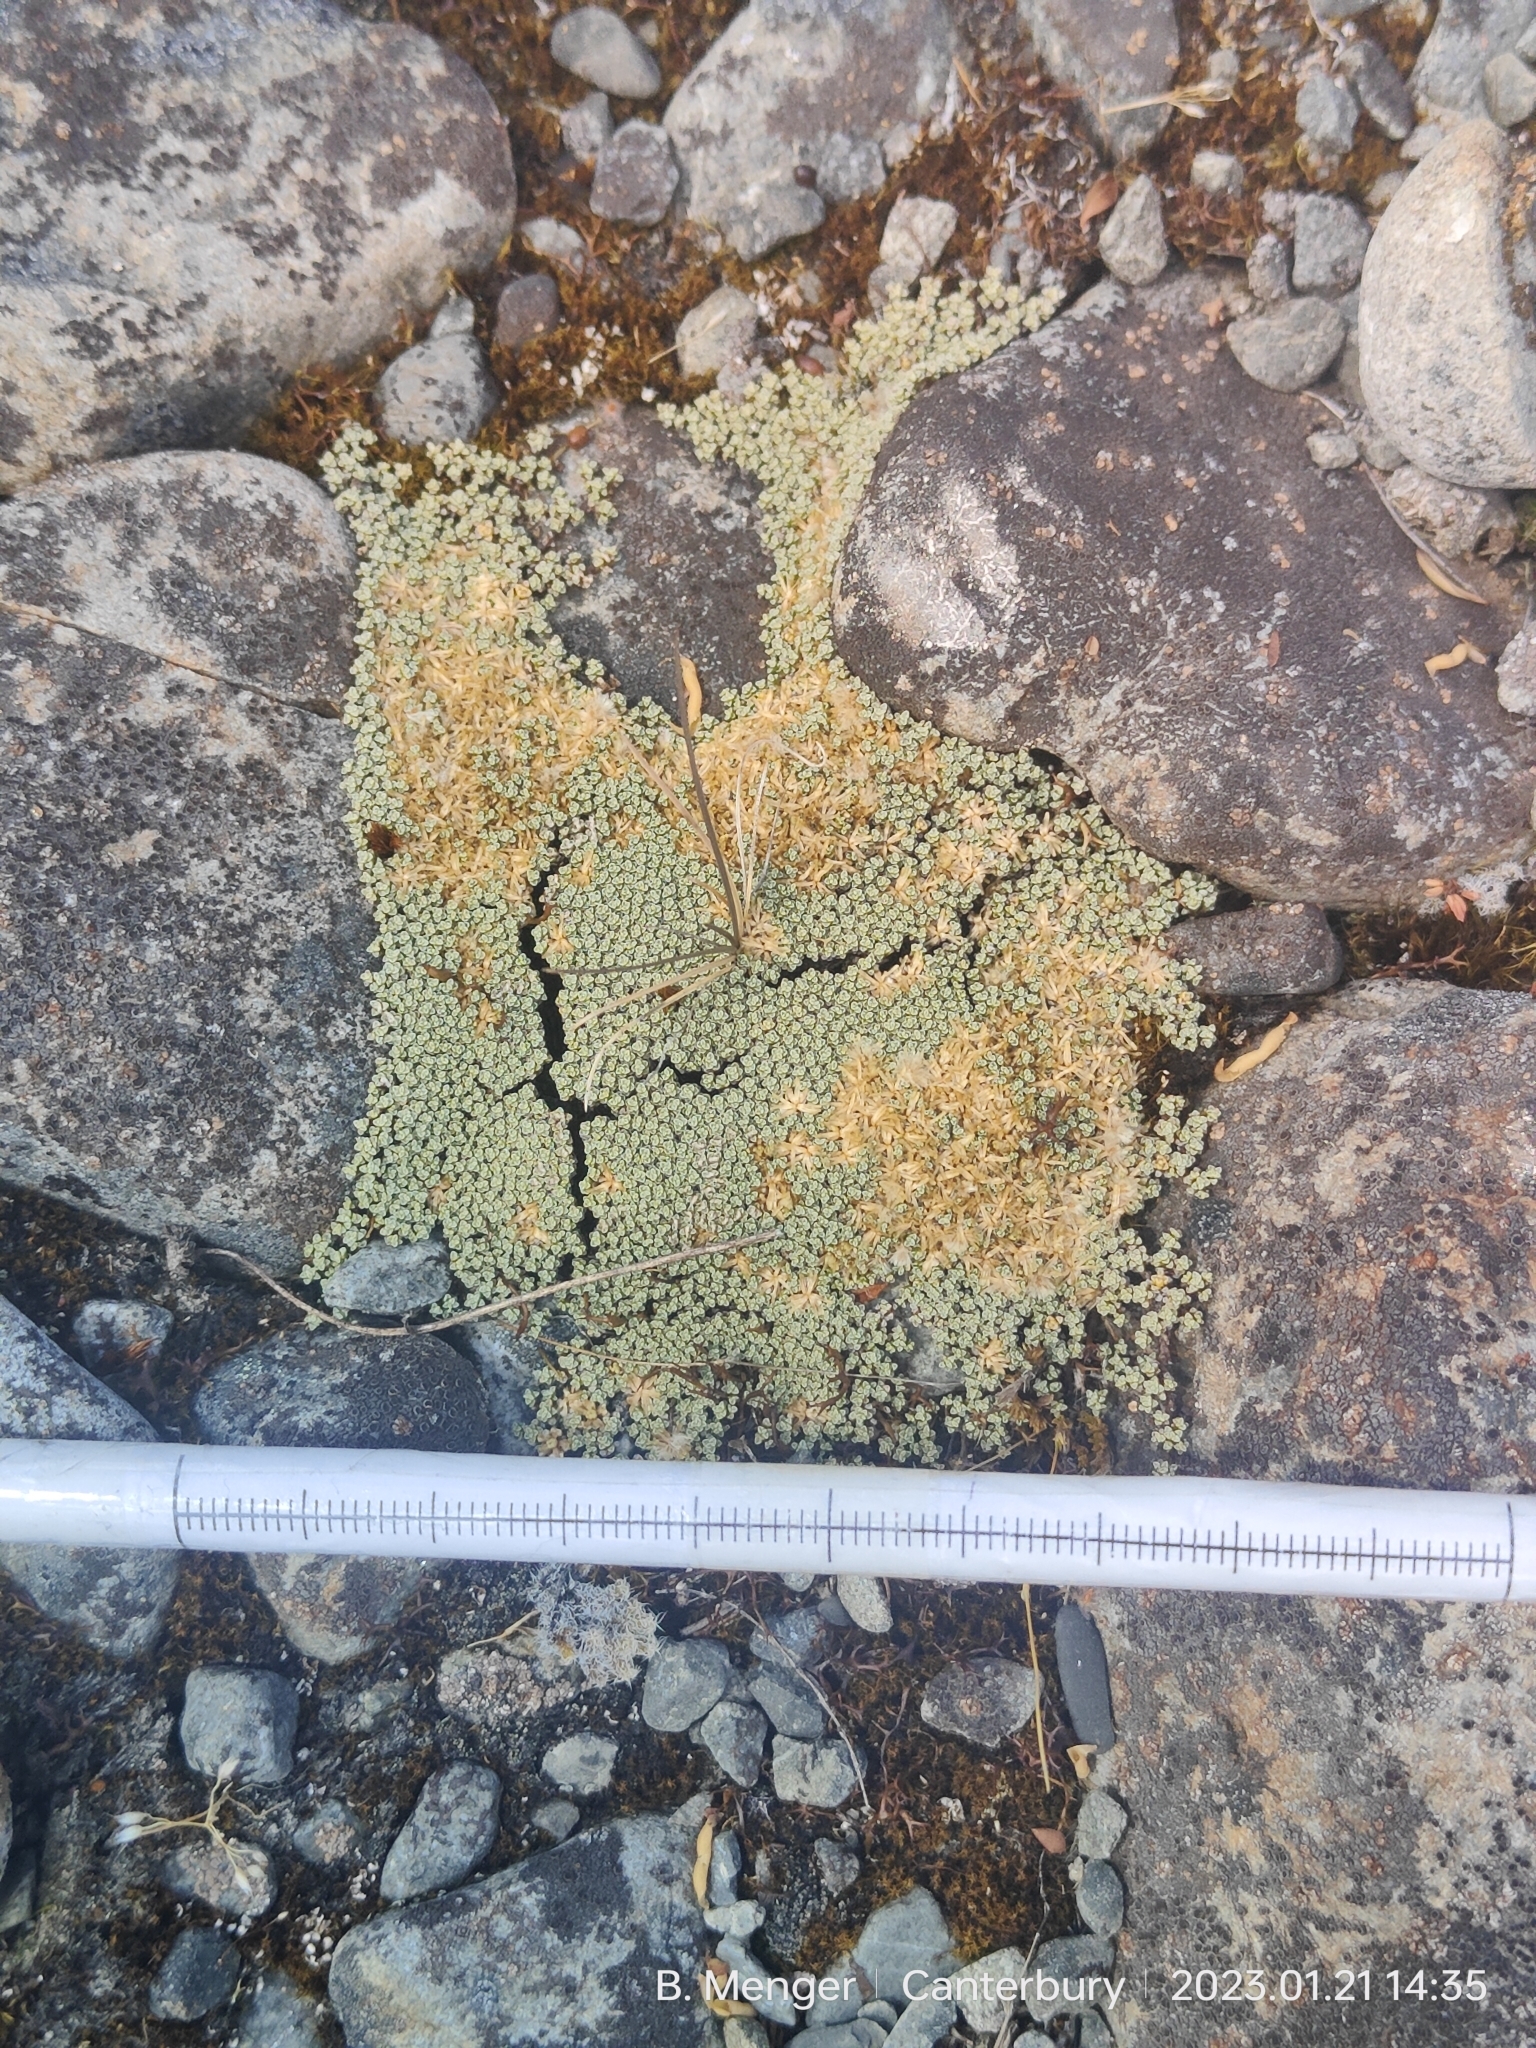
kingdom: Plantae
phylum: Tracheophyta
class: Magnoliopsida
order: Asterales
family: Asteraceae
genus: Raoulia
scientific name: Raoulia australis
